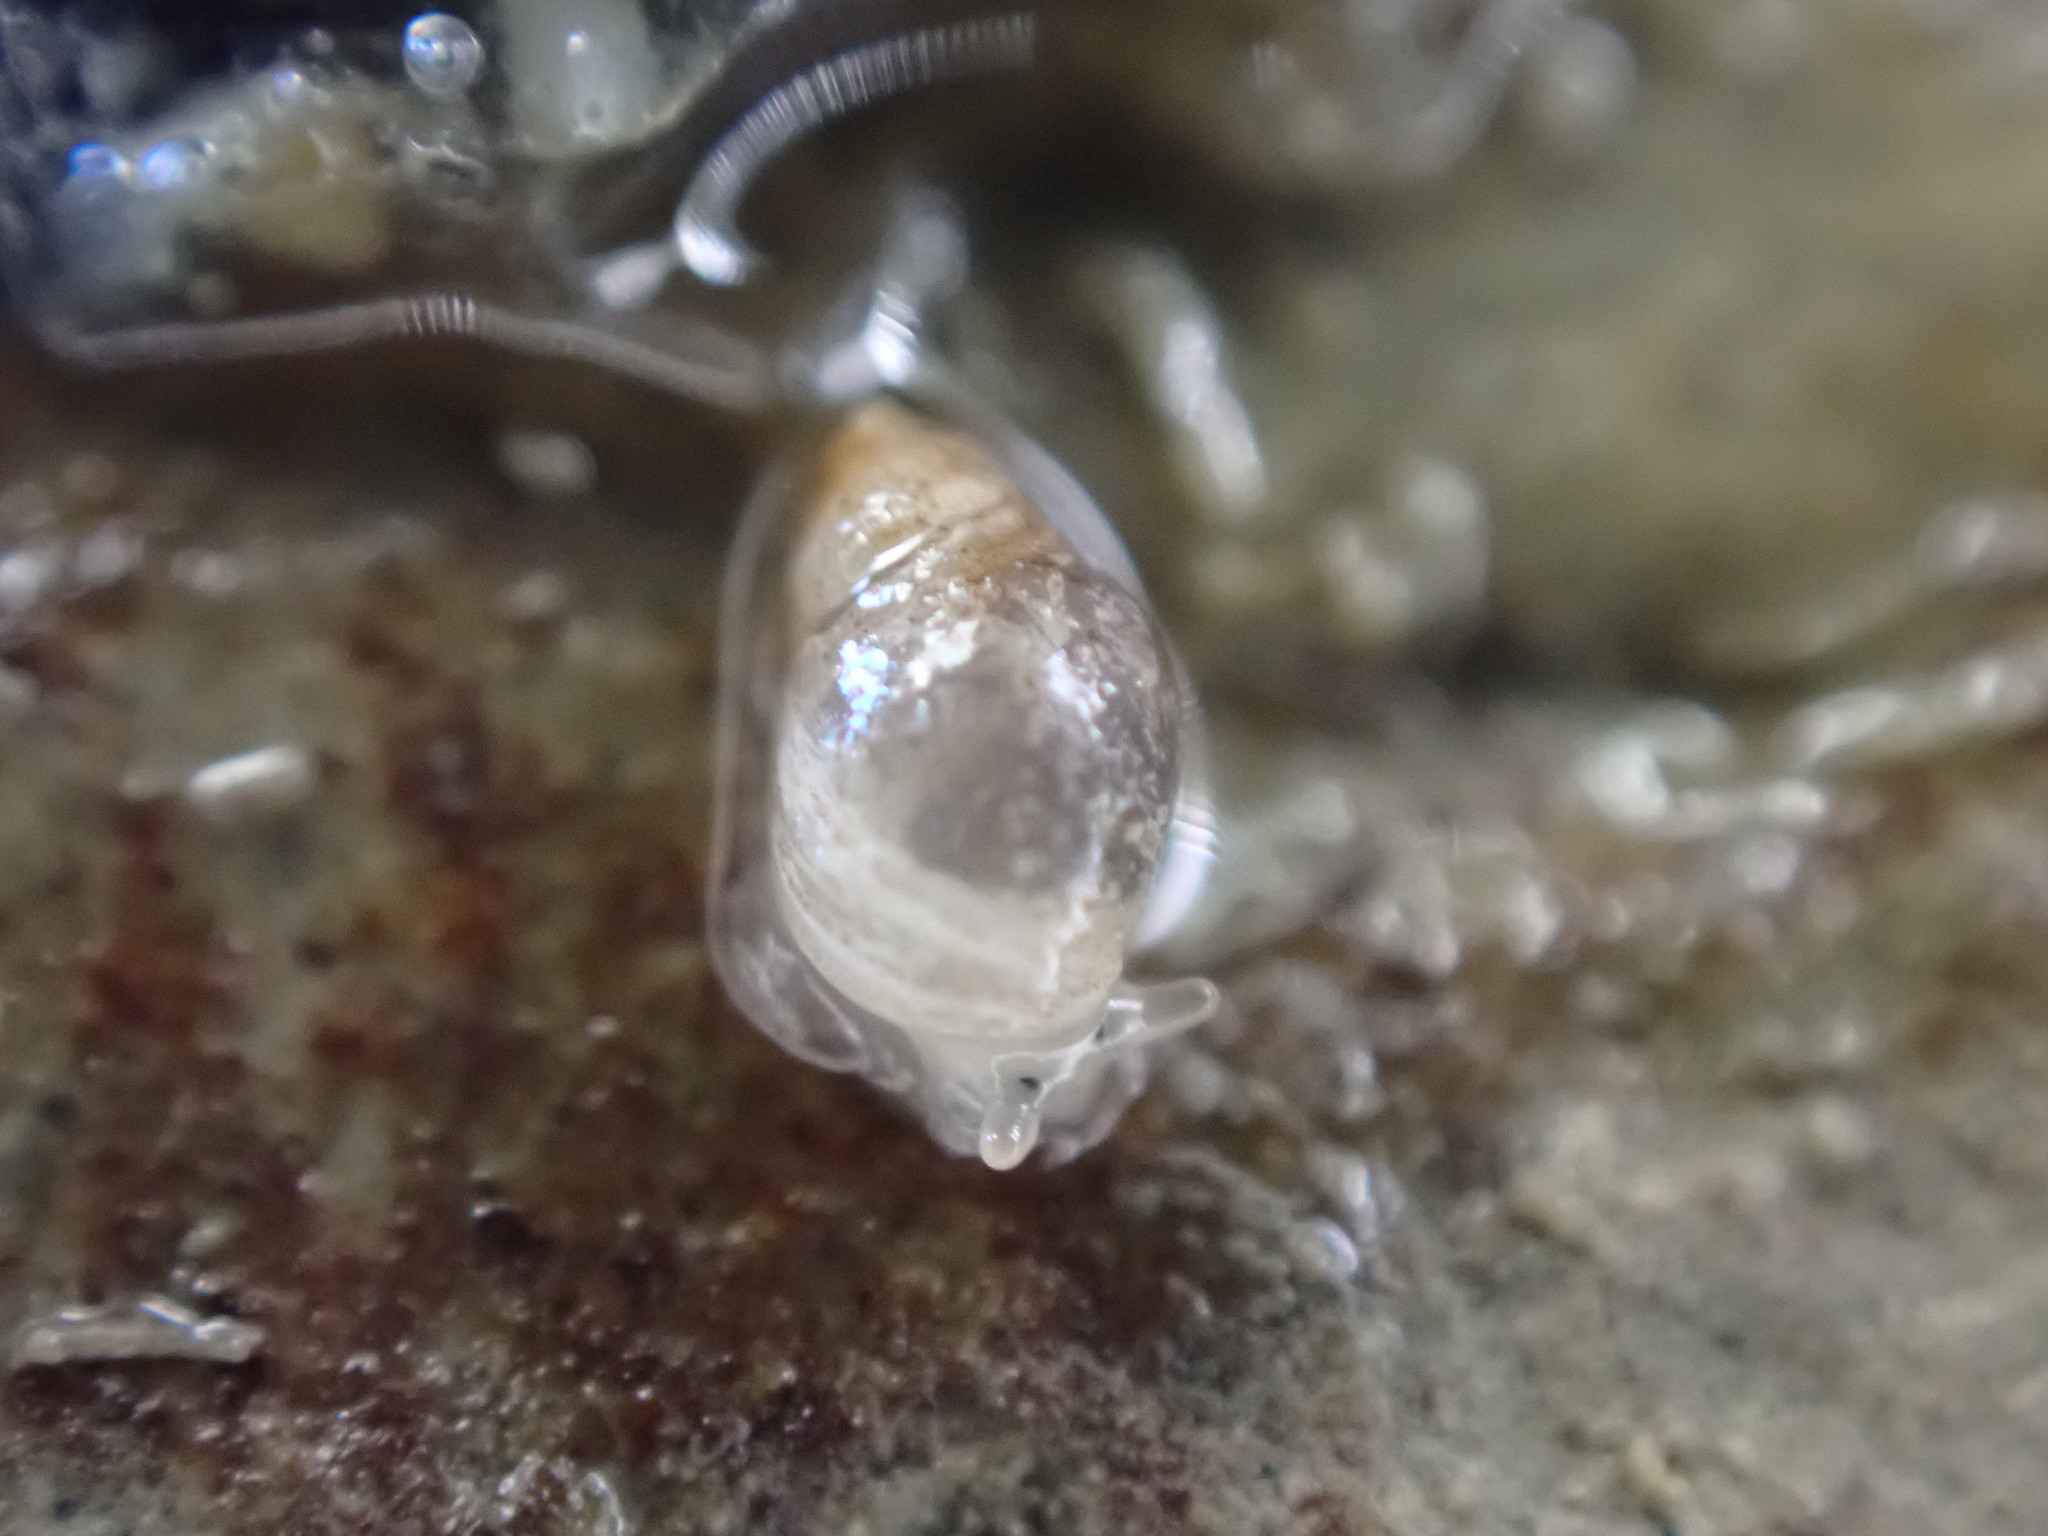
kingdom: Animalia
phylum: Mollusca
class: Gastropoda
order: Ellobiida
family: Ellobiidae
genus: Leuconopsis
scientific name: Leuconopsis obsoleta
